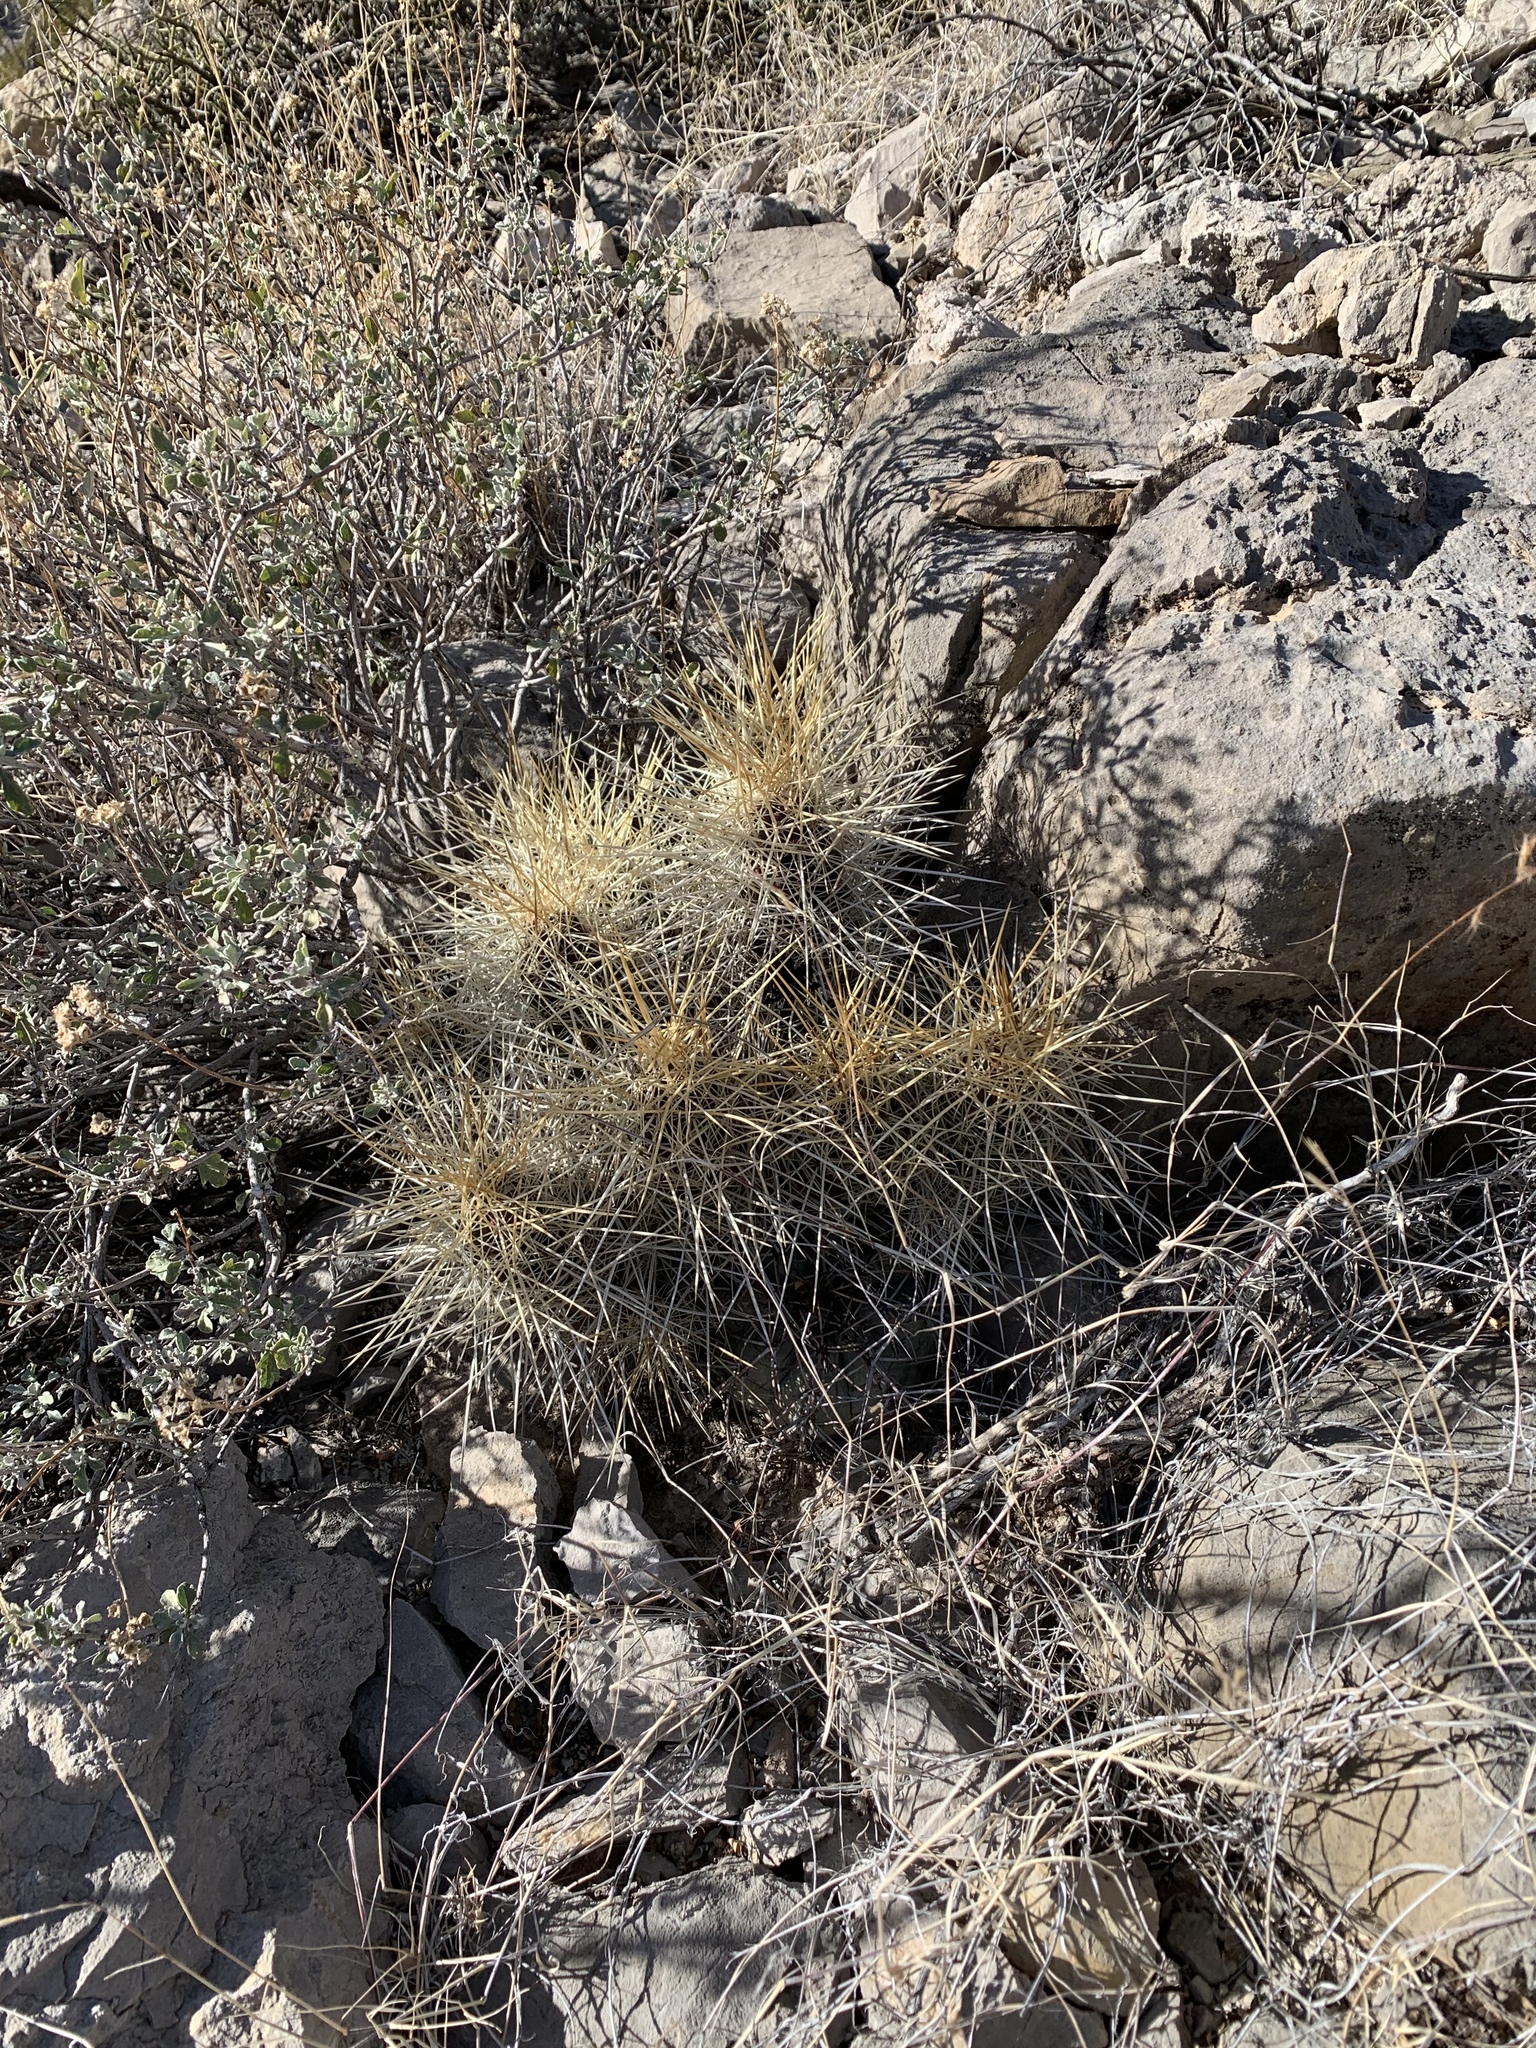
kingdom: Plantae
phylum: Tracheophyta
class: Magnoliopsida
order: Caryophyllales
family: Cactaceae
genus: Echinocereus
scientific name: Echinocereus stramineus
